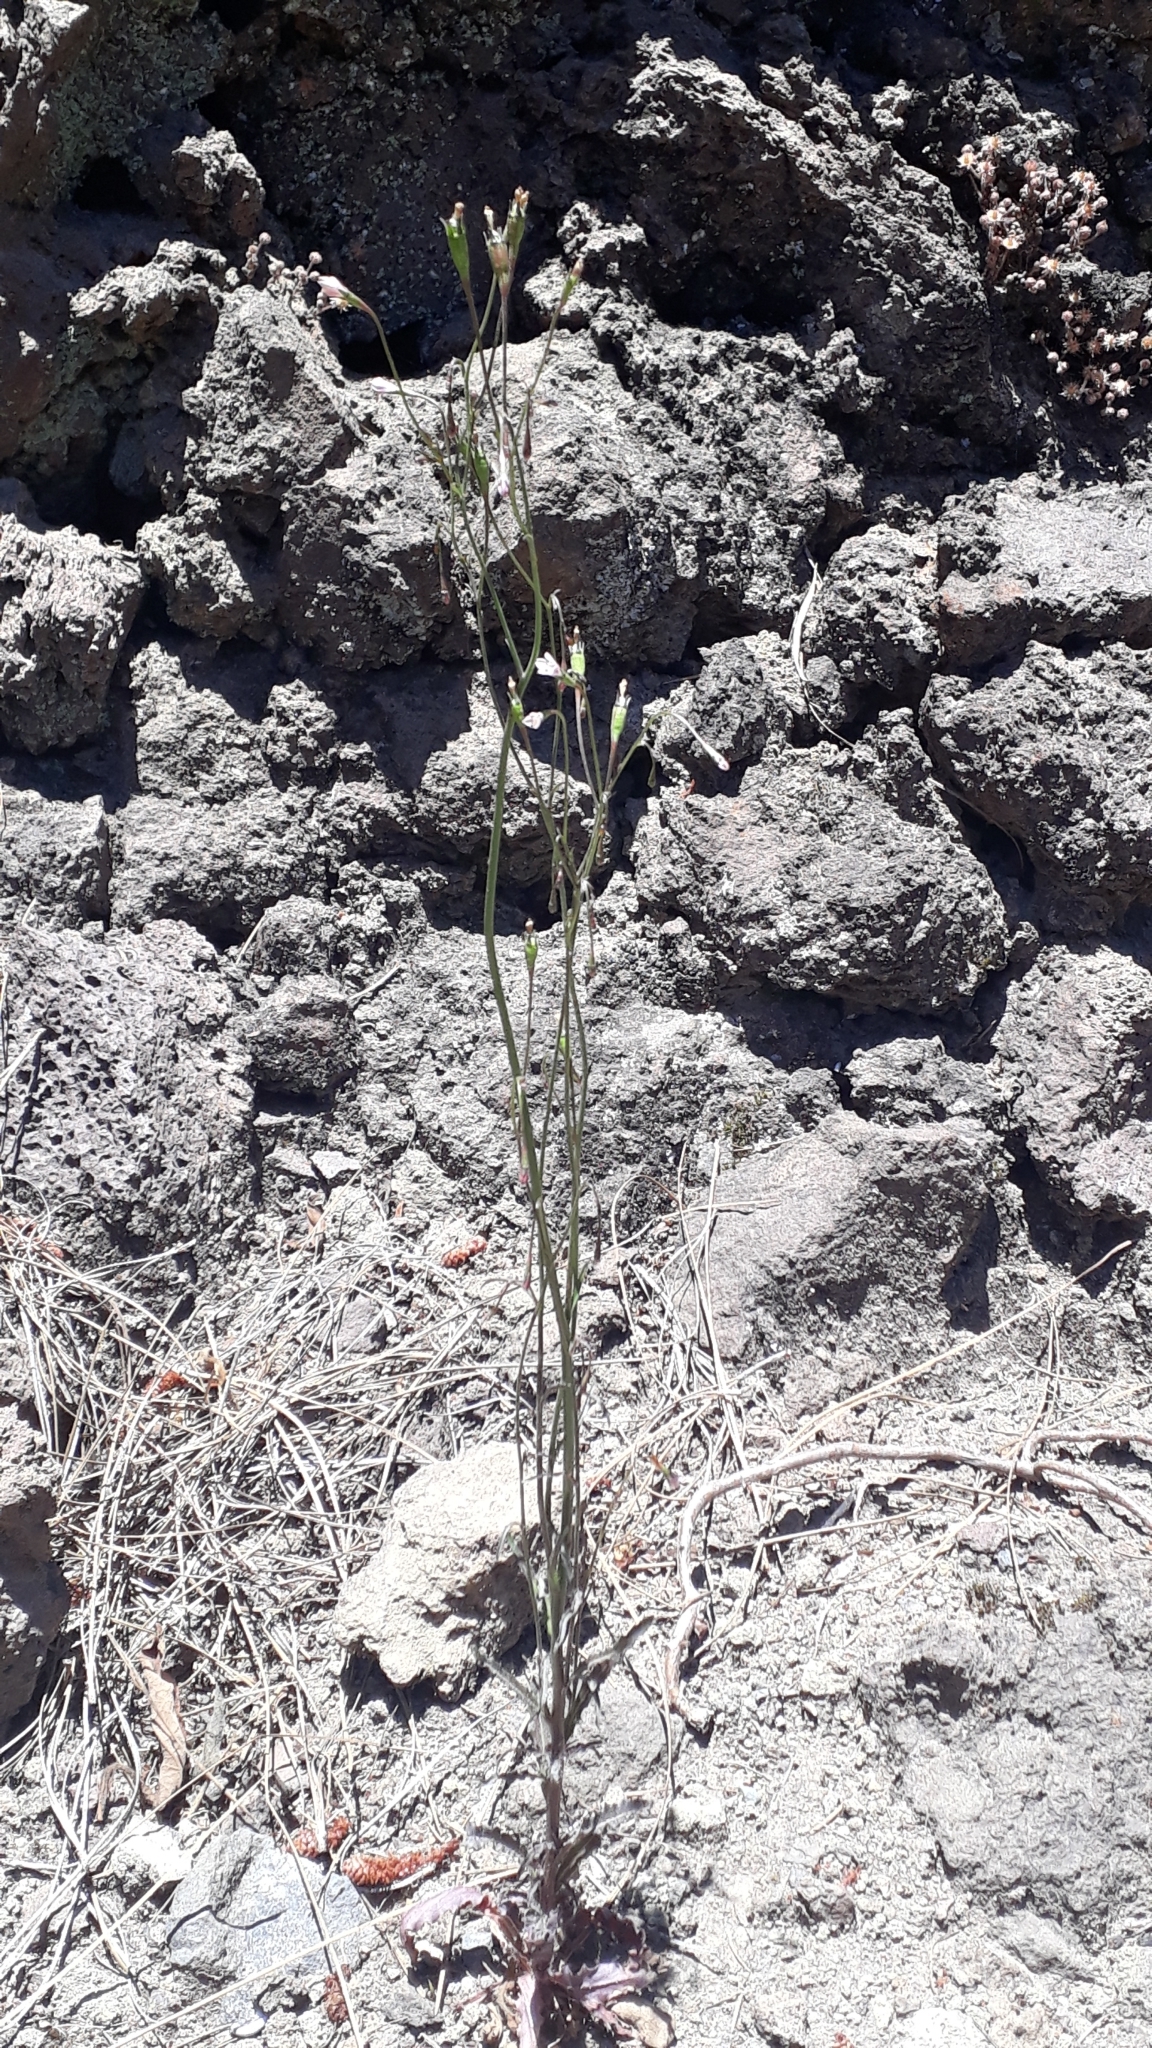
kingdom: Plantae
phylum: Tracheophyta
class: Magnoliopsida
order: Asterales
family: Campanulaceae
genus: Wahlenbergia
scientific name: Wahlenbergia lobelioides
